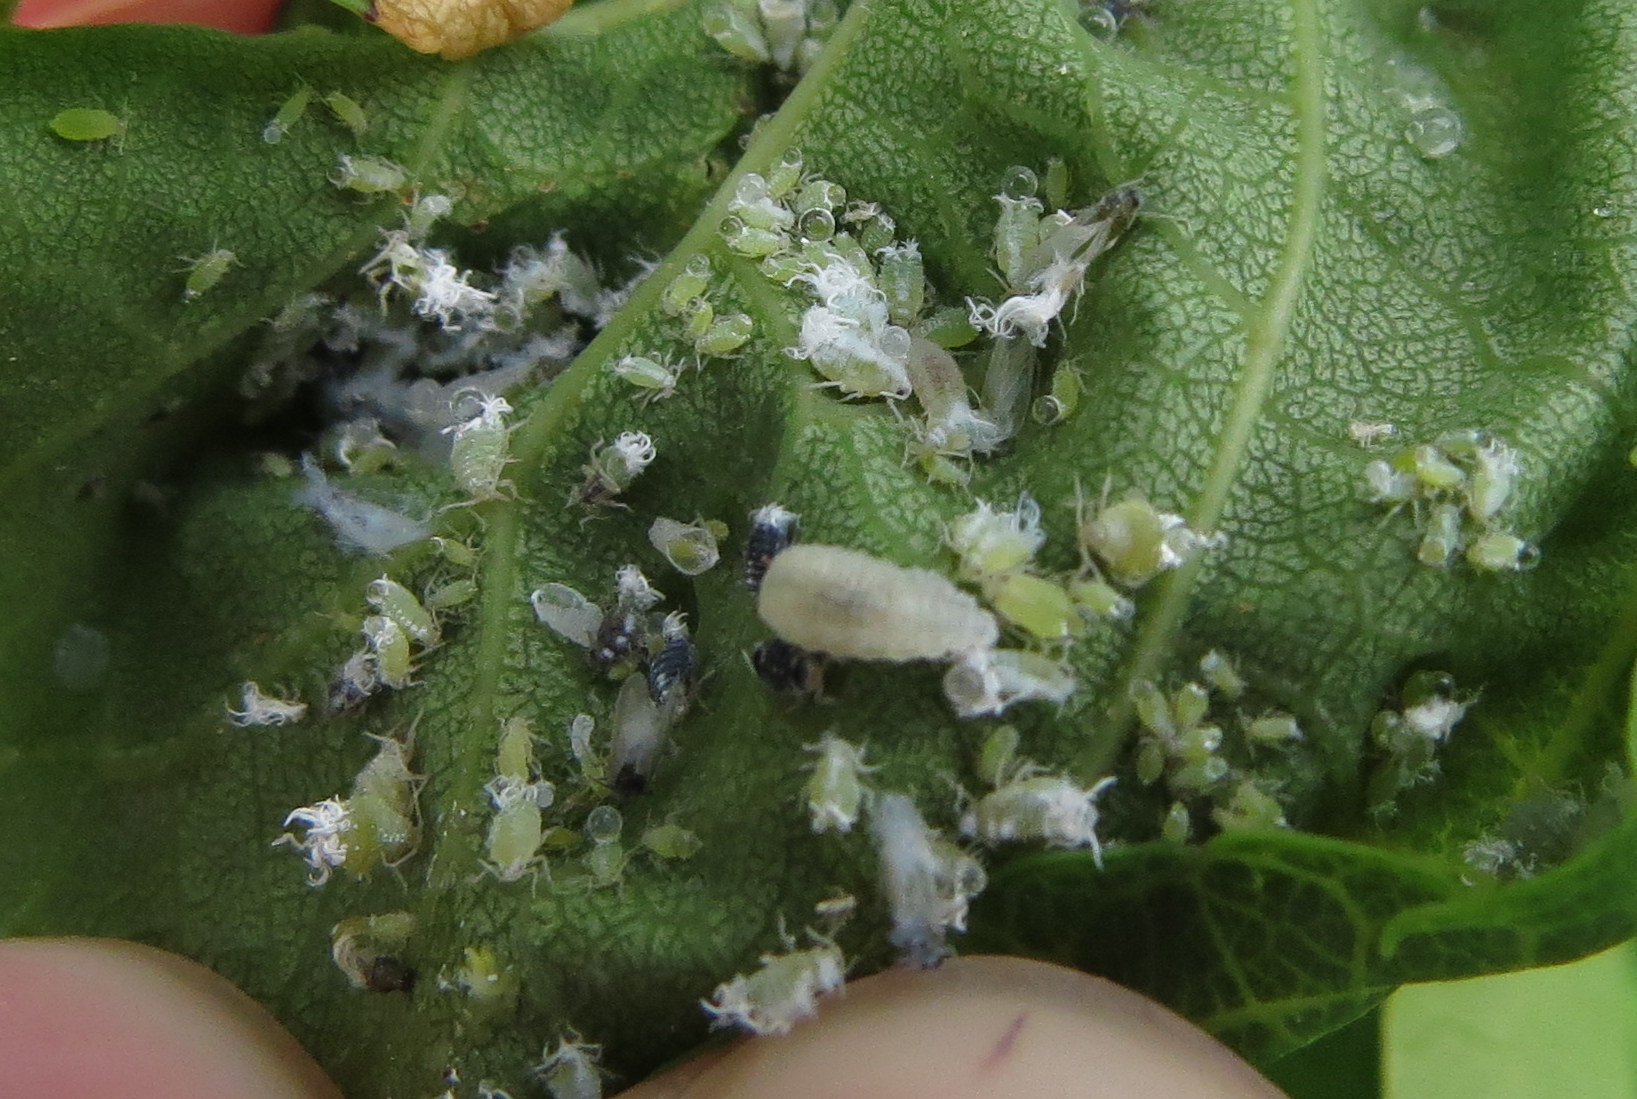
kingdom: Animalia
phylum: Arthropoda
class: Insecta
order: Hemiptera
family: Aphididae
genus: Prociphilus
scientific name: Prociphilus fraxinifolii
